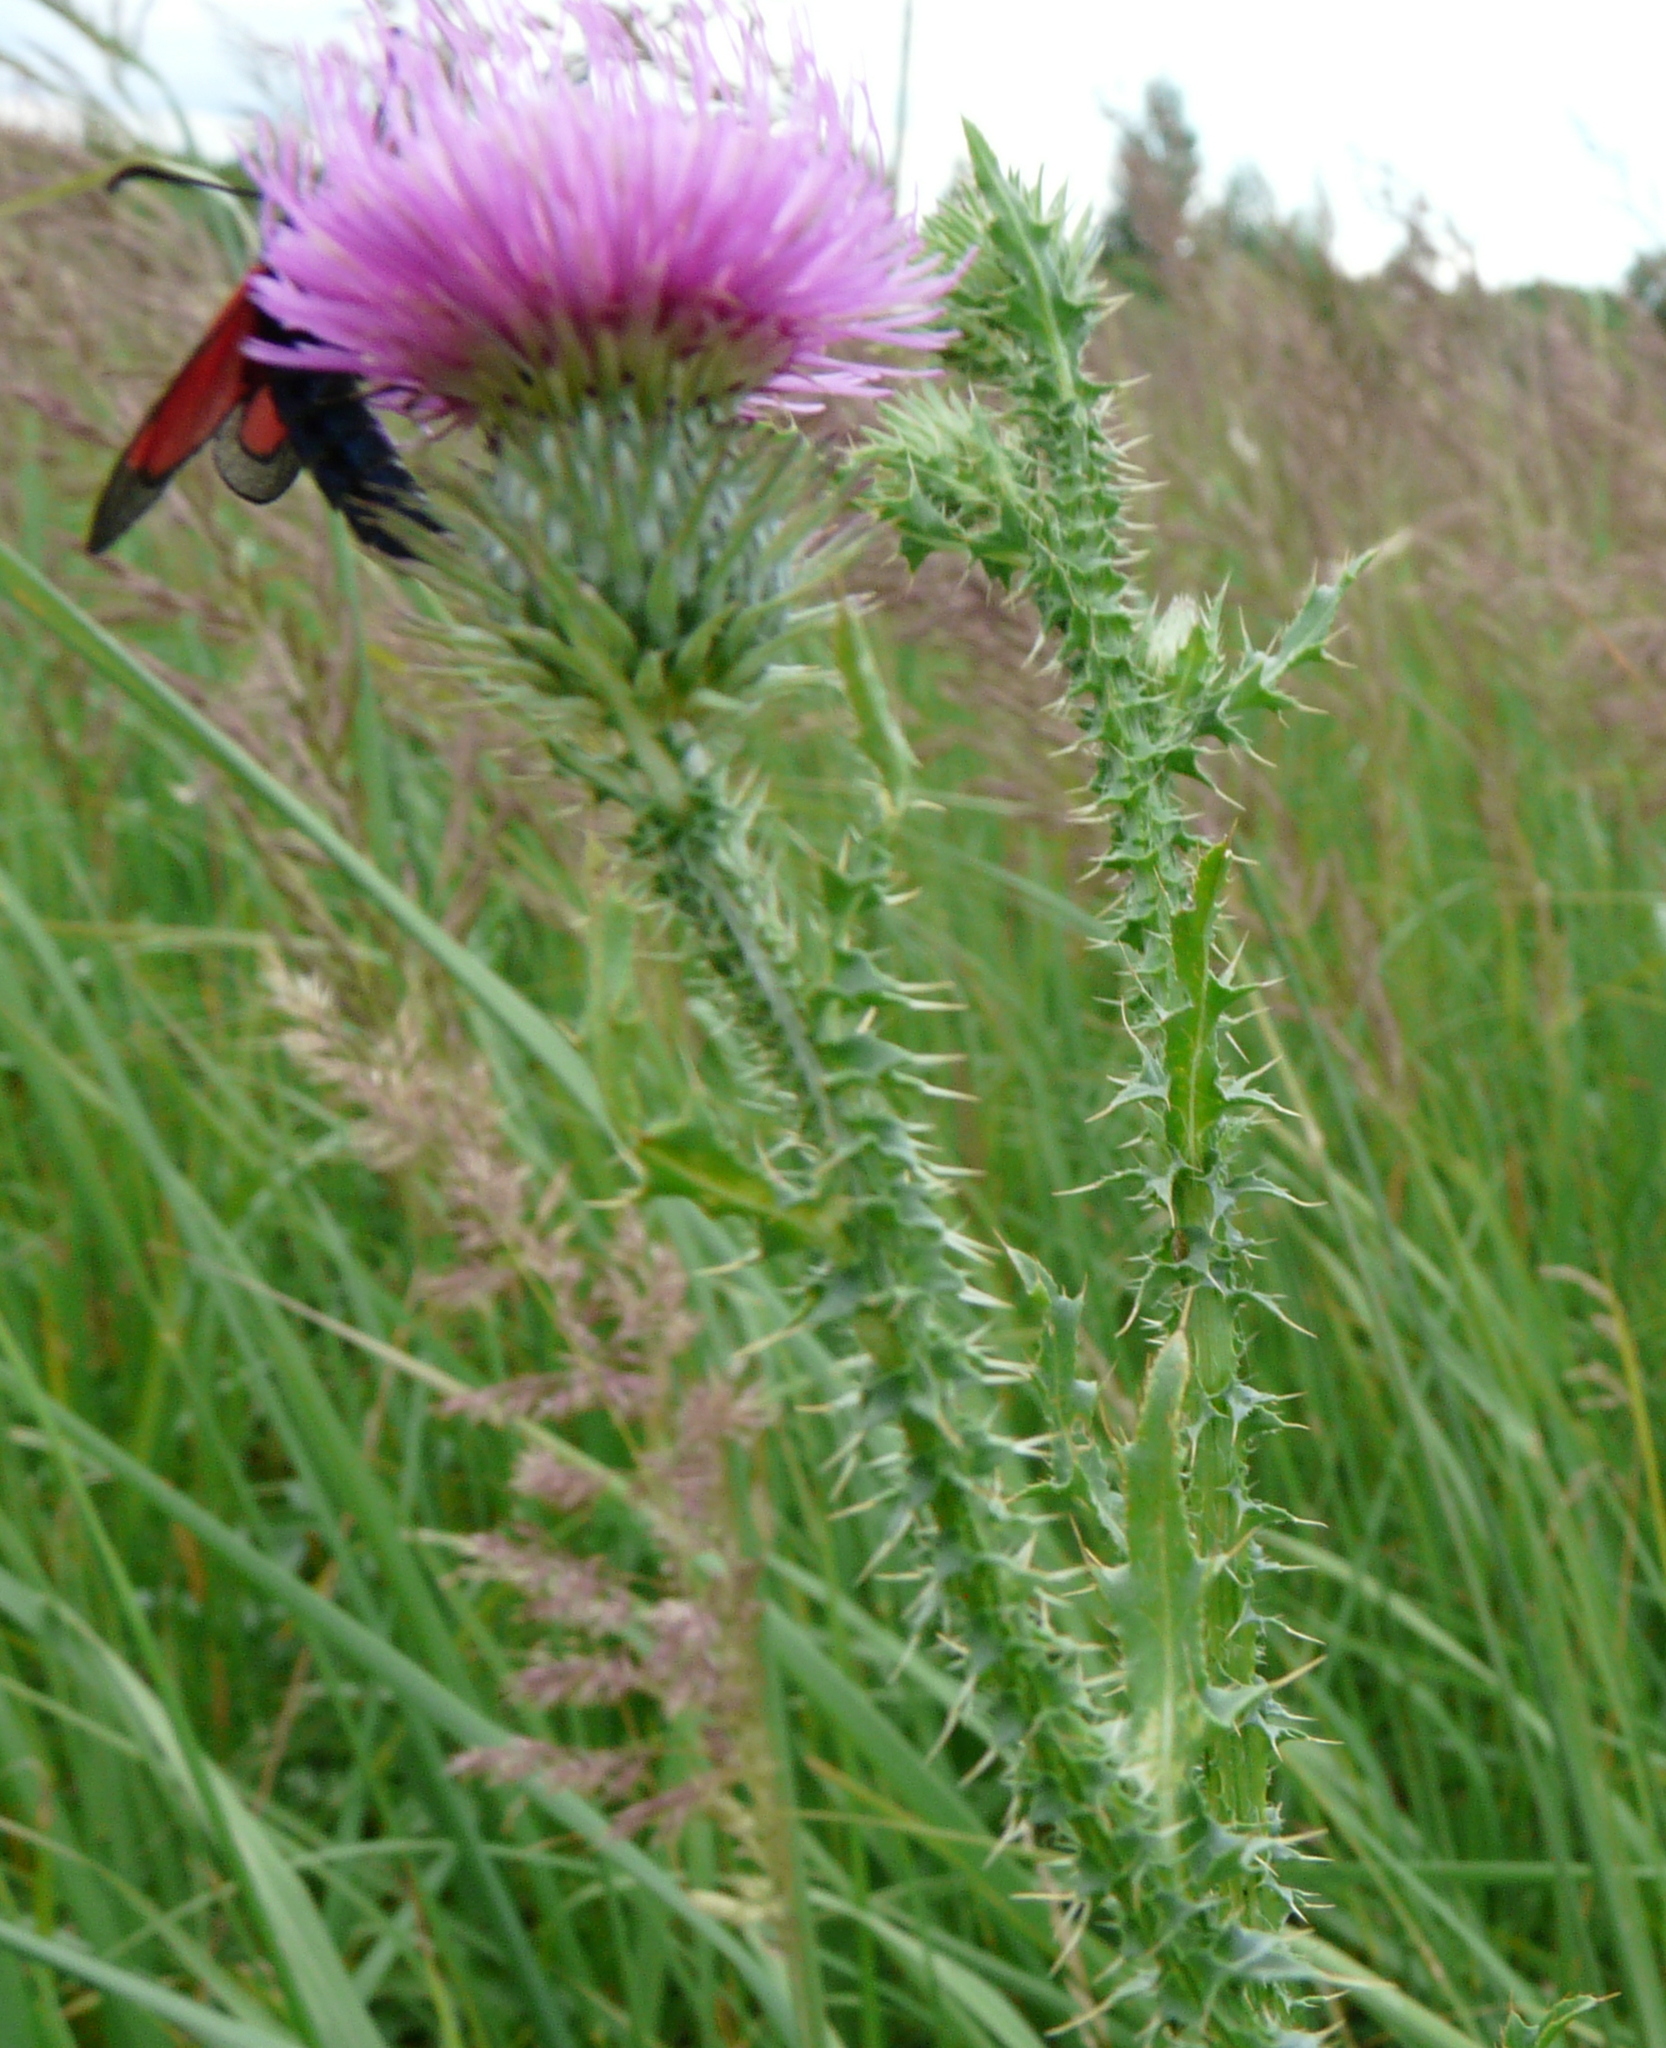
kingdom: Plantae
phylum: Tracheophyta
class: Magnoliopsida
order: Asterales
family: Asteraceae
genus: Carduus
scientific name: Carduus acanthoides
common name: Plumeless thistle
